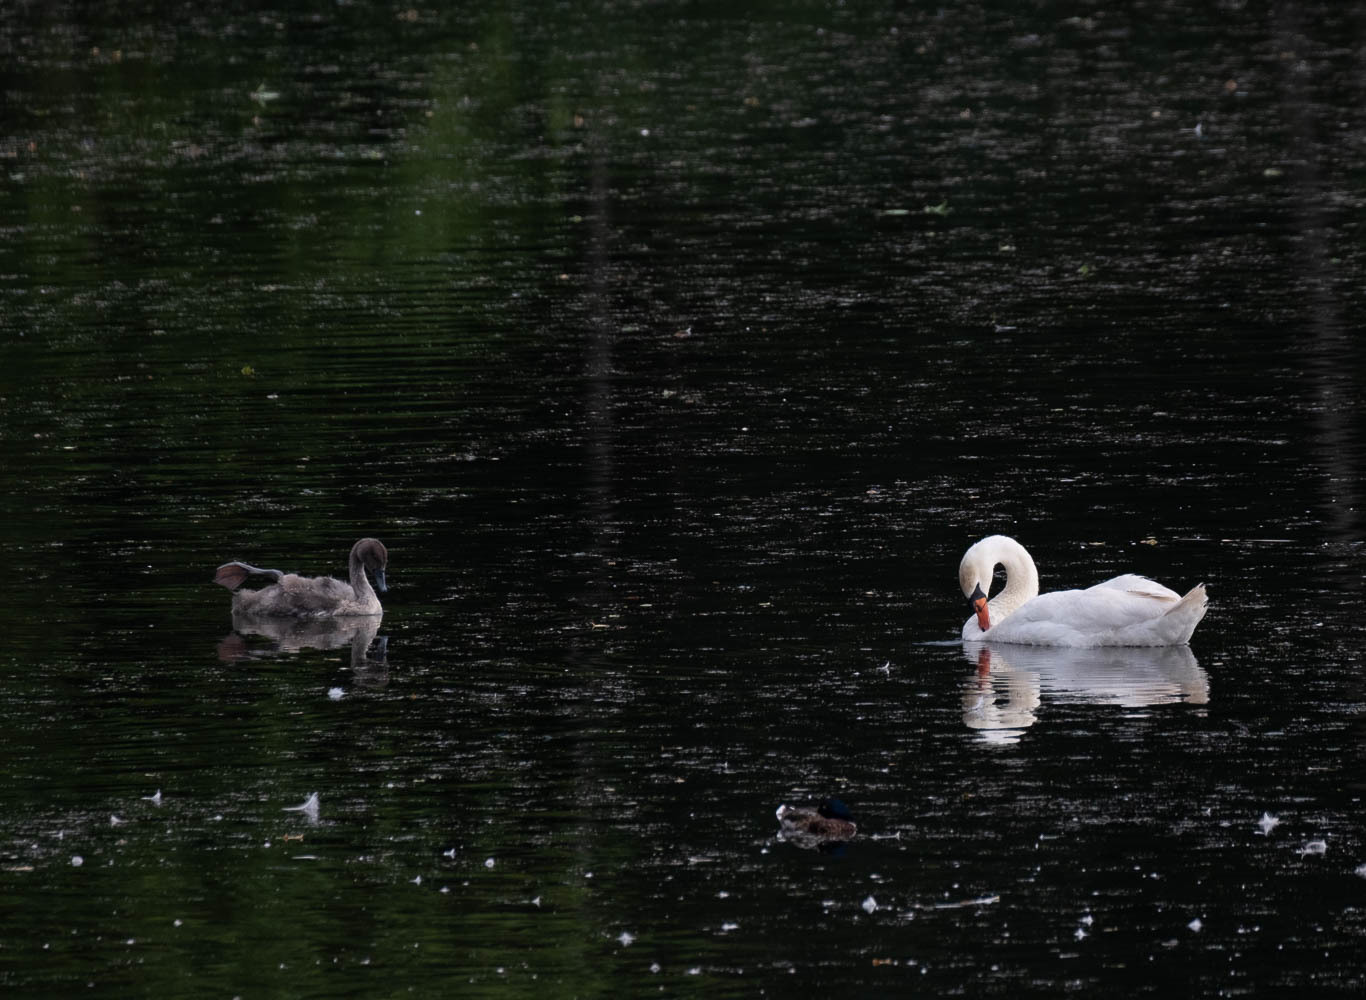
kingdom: Animalia
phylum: Chordata
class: Aves
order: Anseriformes
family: Anatidae
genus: Cygnus
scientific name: Cygnus olor
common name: Mute swan
